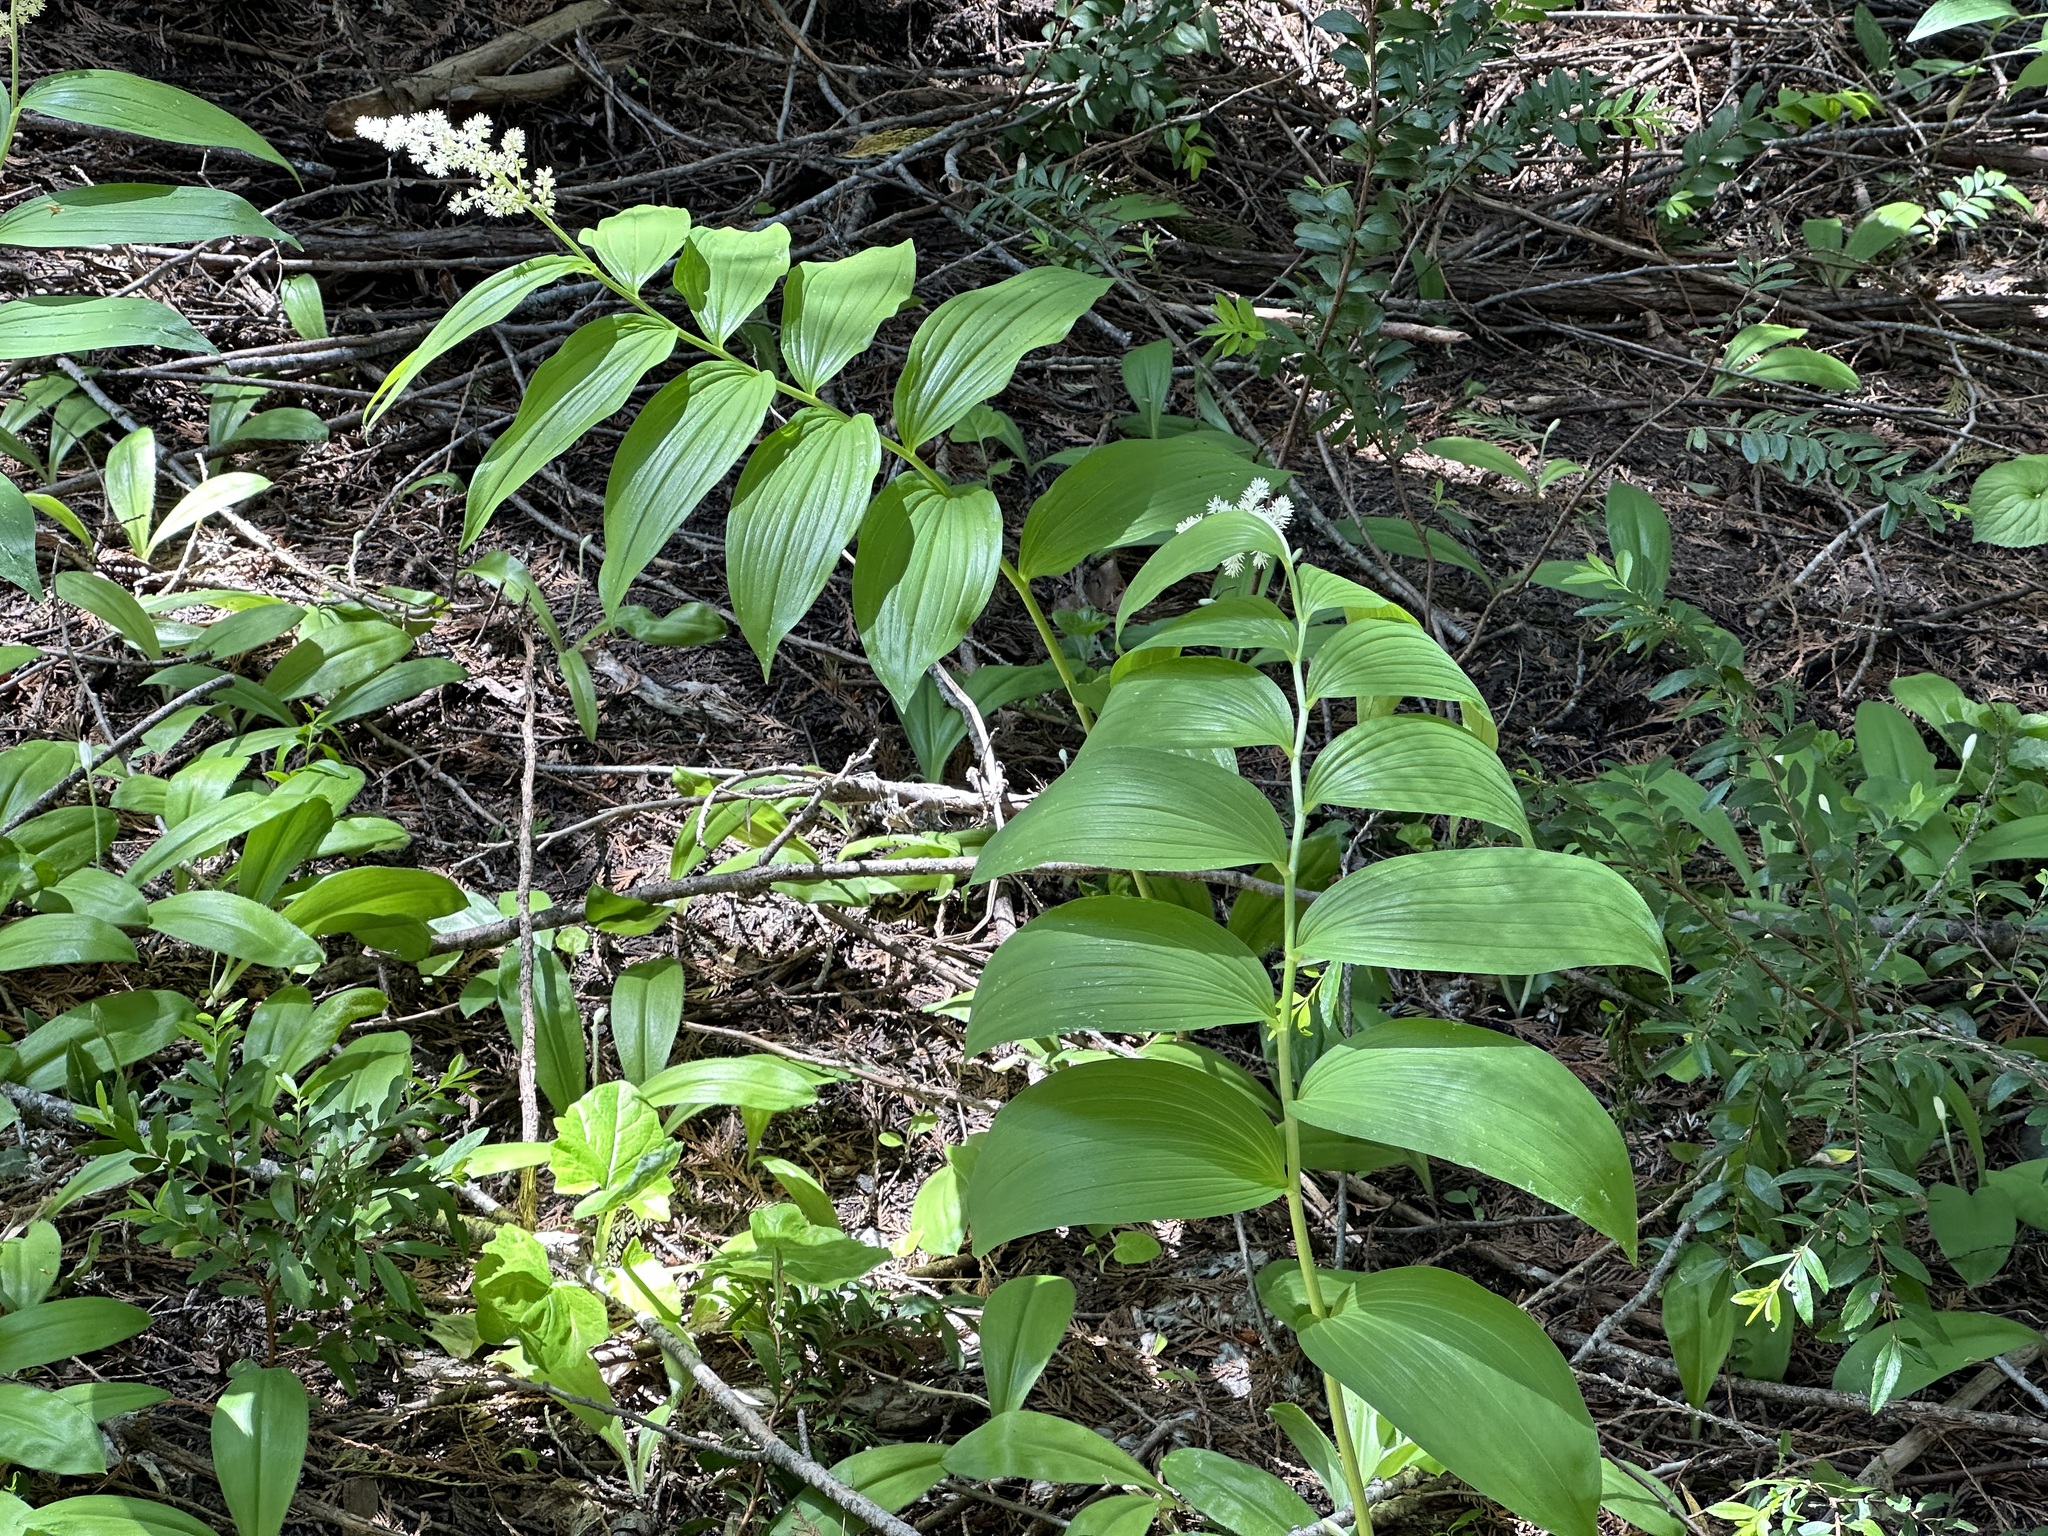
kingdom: Plantae
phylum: Tracheophyta
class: Liliopsida
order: Asparagales
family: Asparagaceae
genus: Maianthemum
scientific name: Maianthemum racemosum
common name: False spikenard
